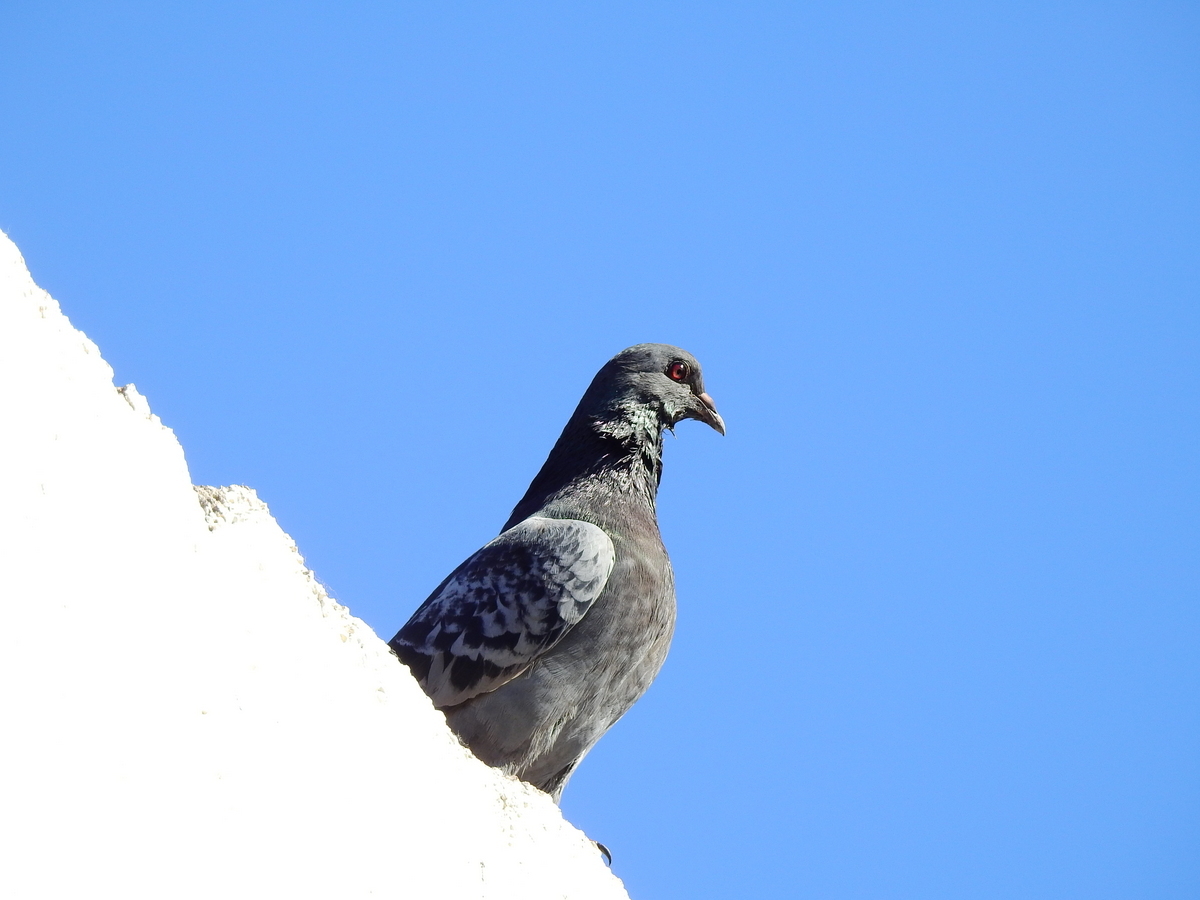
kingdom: Animalia
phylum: Chordata
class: Aves
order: Columbiformes
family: Columbidae
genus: Columba
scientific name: Columba livia
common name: Rock pigeon
